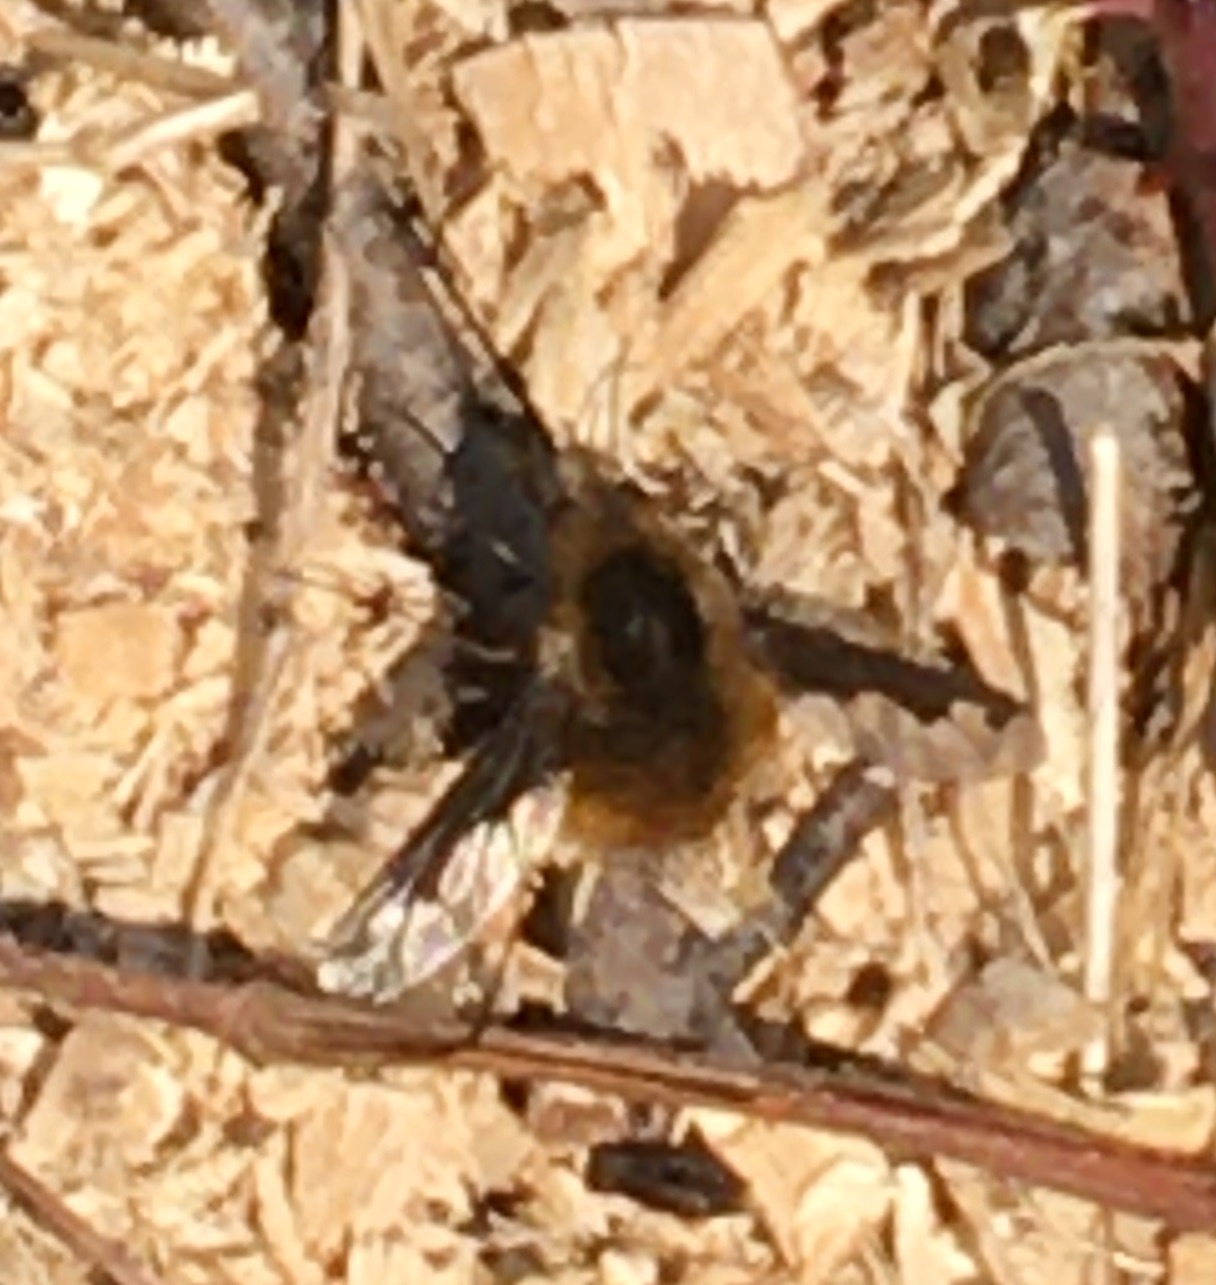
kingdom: Animalia
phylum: Arthropoda
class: Insecta
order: Diptera
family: Bombyliidae
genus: Bombylius
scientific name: Bombylius major
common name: Bee fly
